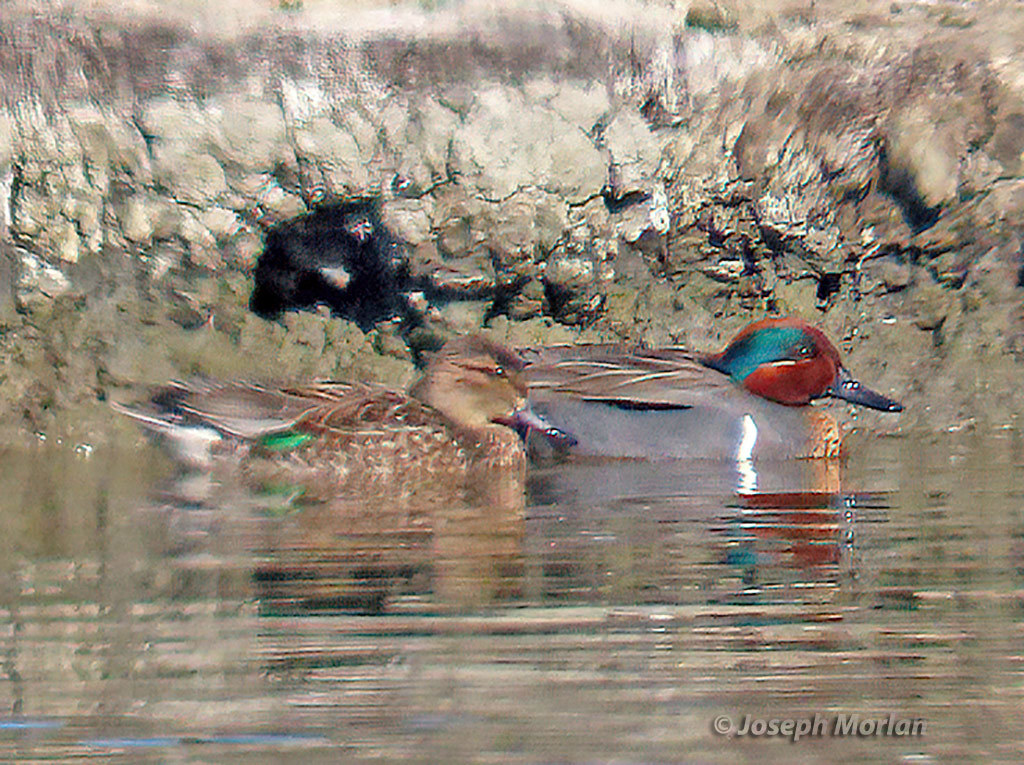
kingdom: Animalia
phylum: Chordata
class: Aves
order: Anseriformes
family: Anatidae
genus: Anas
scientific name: Anas crecca
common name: Eurasian teal
